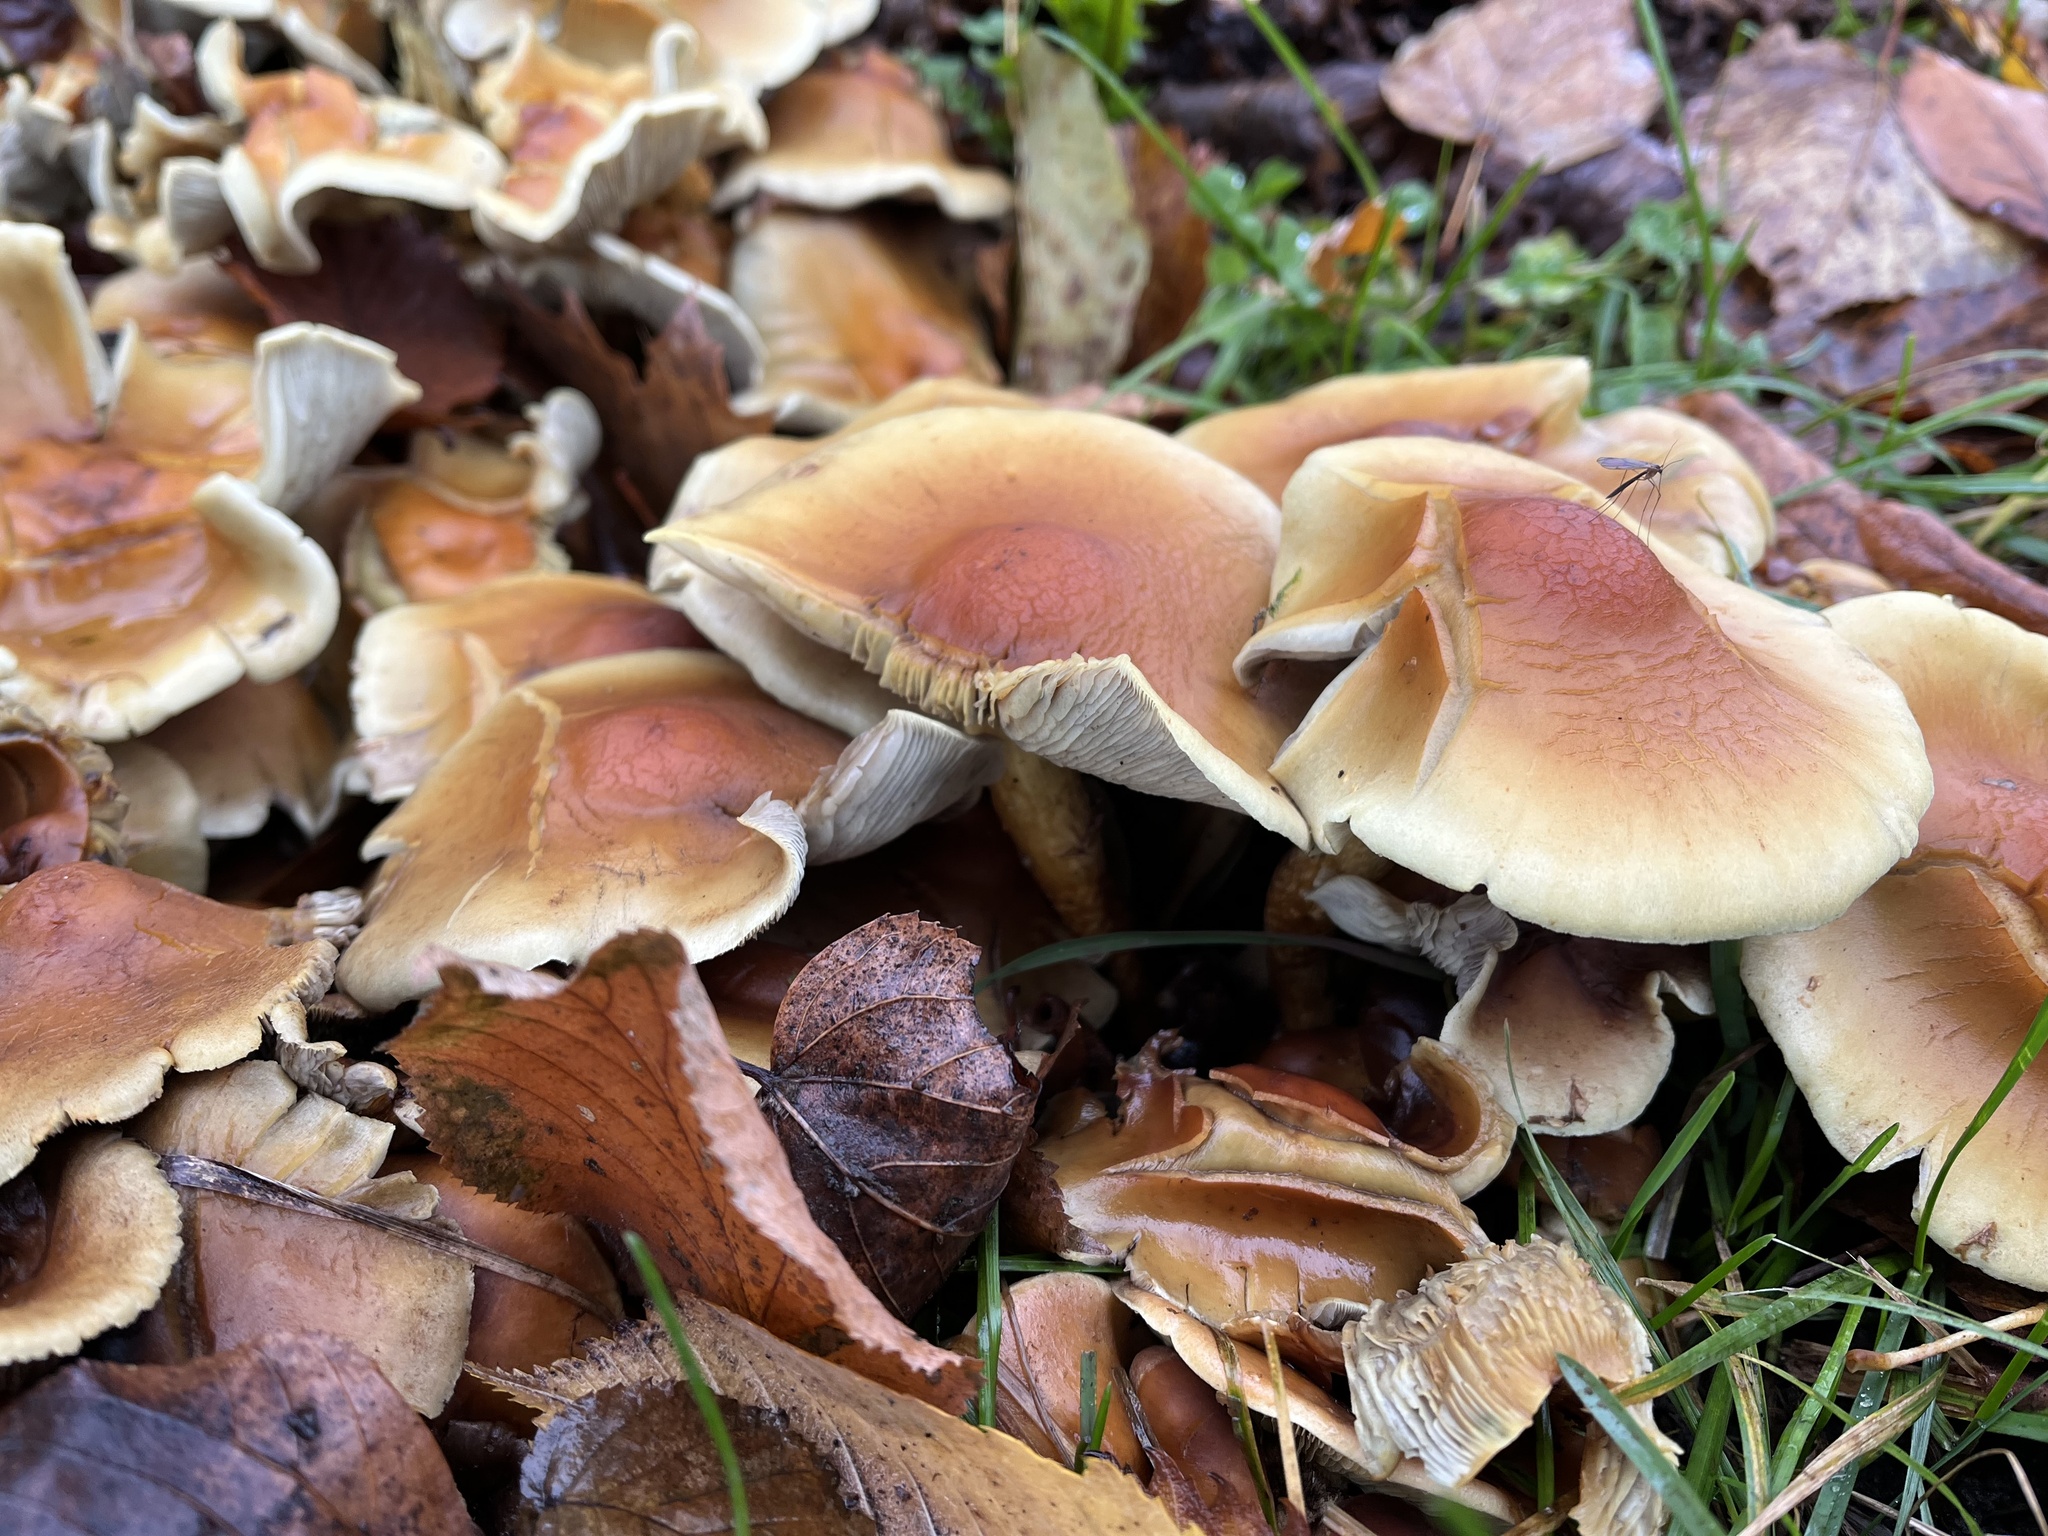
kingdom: Fungi
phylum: Basidiomycota
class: Agaricomycetes
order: Agaricales
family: Strophariaceae
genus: Hypholoma
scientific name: Hypholoma fasciculare
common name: Sulphur tuft
